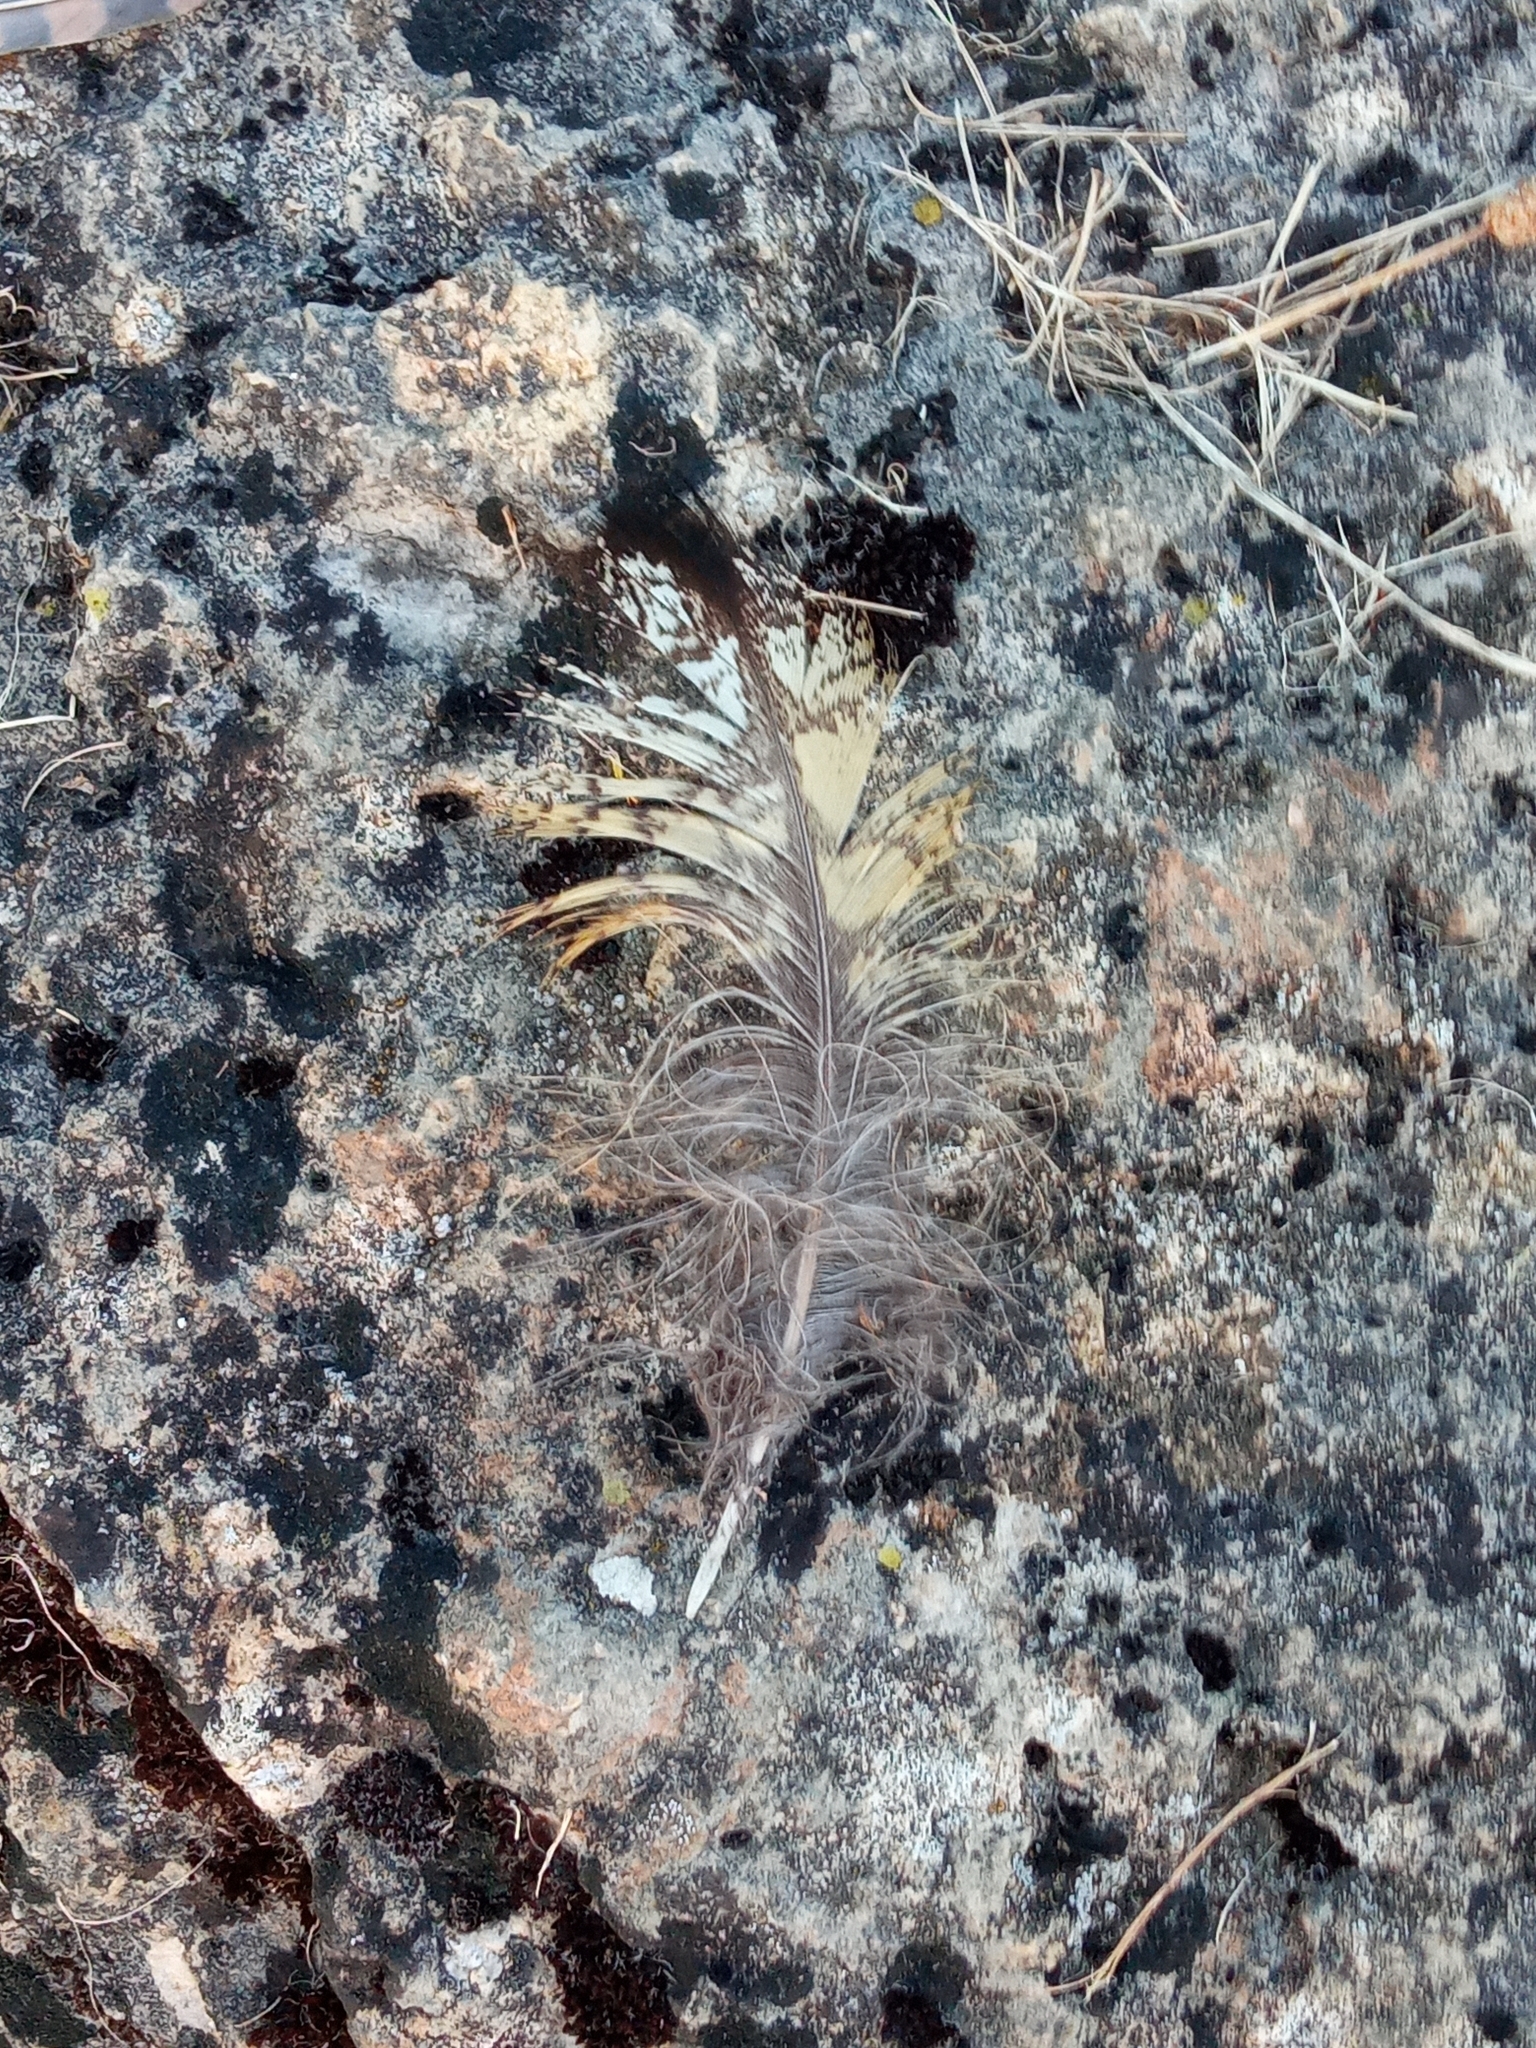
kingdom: Animalia
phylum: Chordata
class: Aves
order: Strigiformes
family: Strigidae
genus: Bubo
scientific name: Bubo bubo
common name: Eurasian eagle-owl
